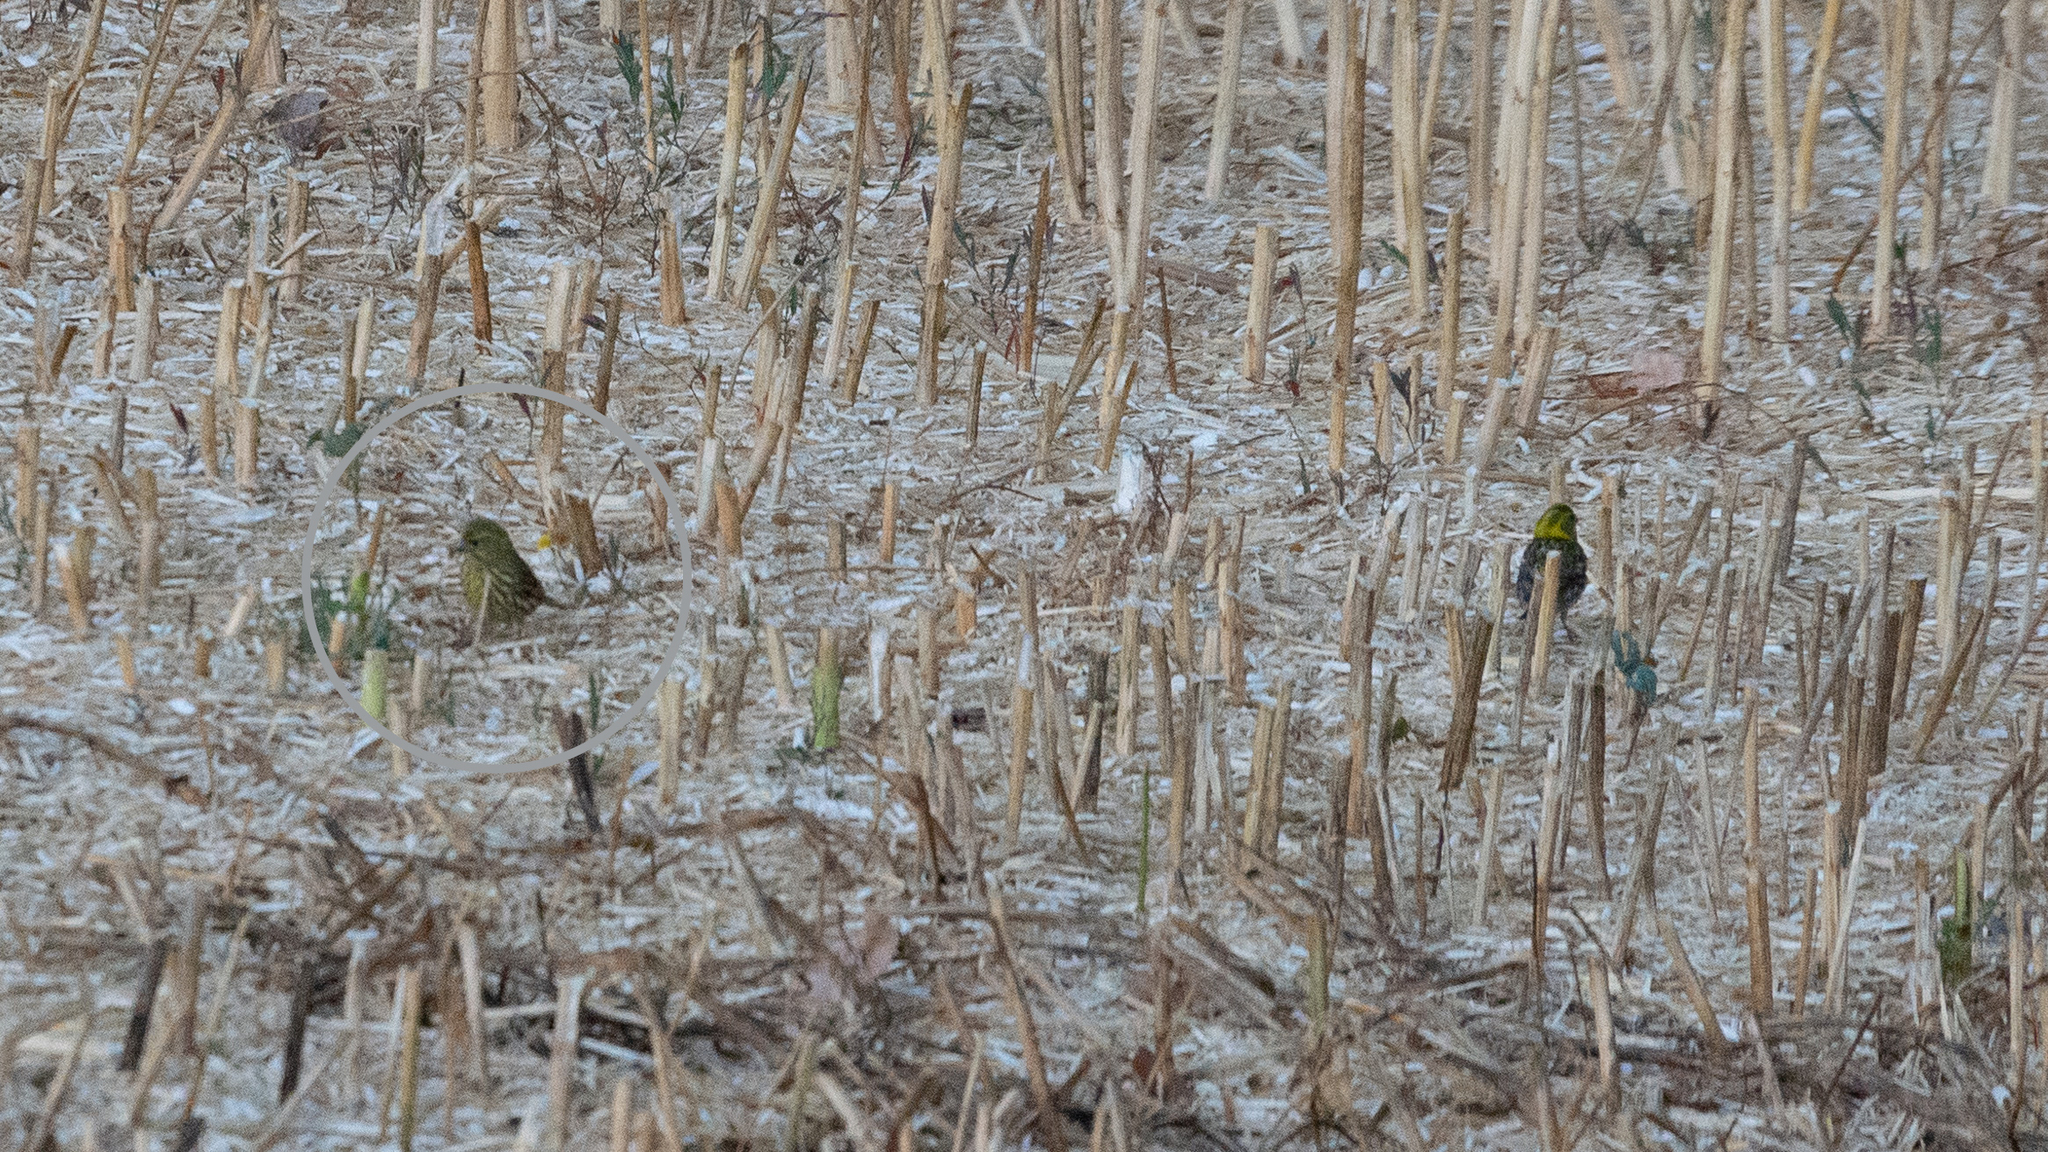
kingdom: Animalia
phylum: Chordata
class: Aves
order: Passeriformes
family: Fringillidae
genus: Serinus
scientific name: Serinus serinus
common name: European serin
